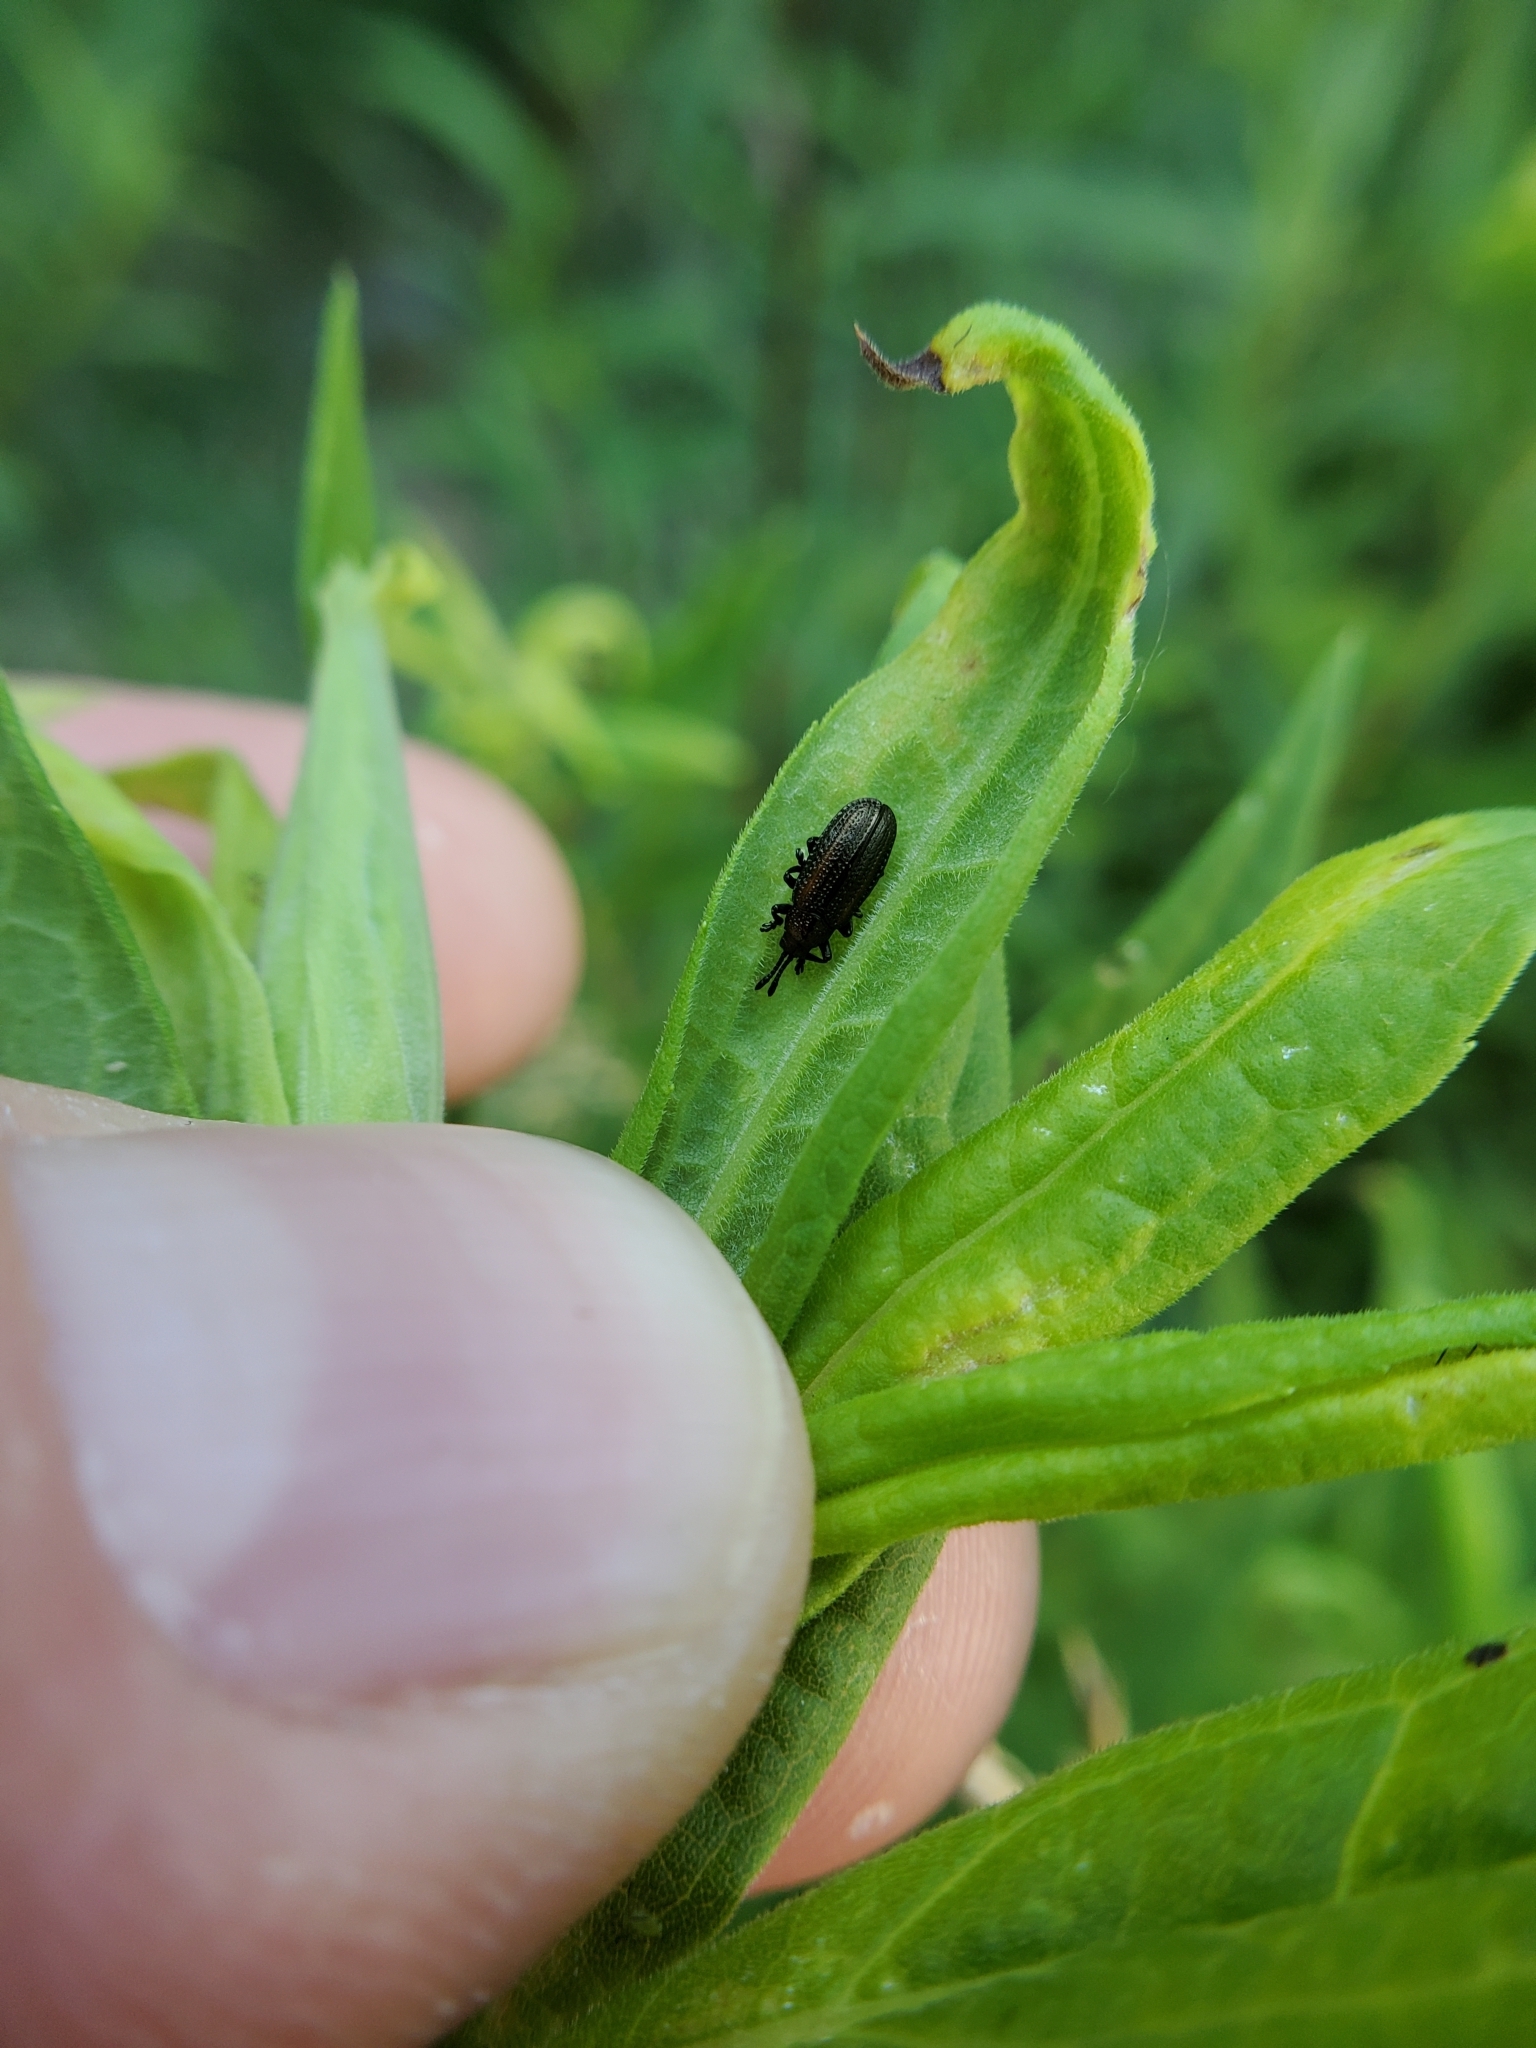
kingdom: Animalia
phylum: Arthropoda
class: Insecta
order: Coleoptera
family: Chrysomelidae
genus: Microrhopala
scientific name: Microrhopala vittata
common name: Goldenrod leaf miner beetle
